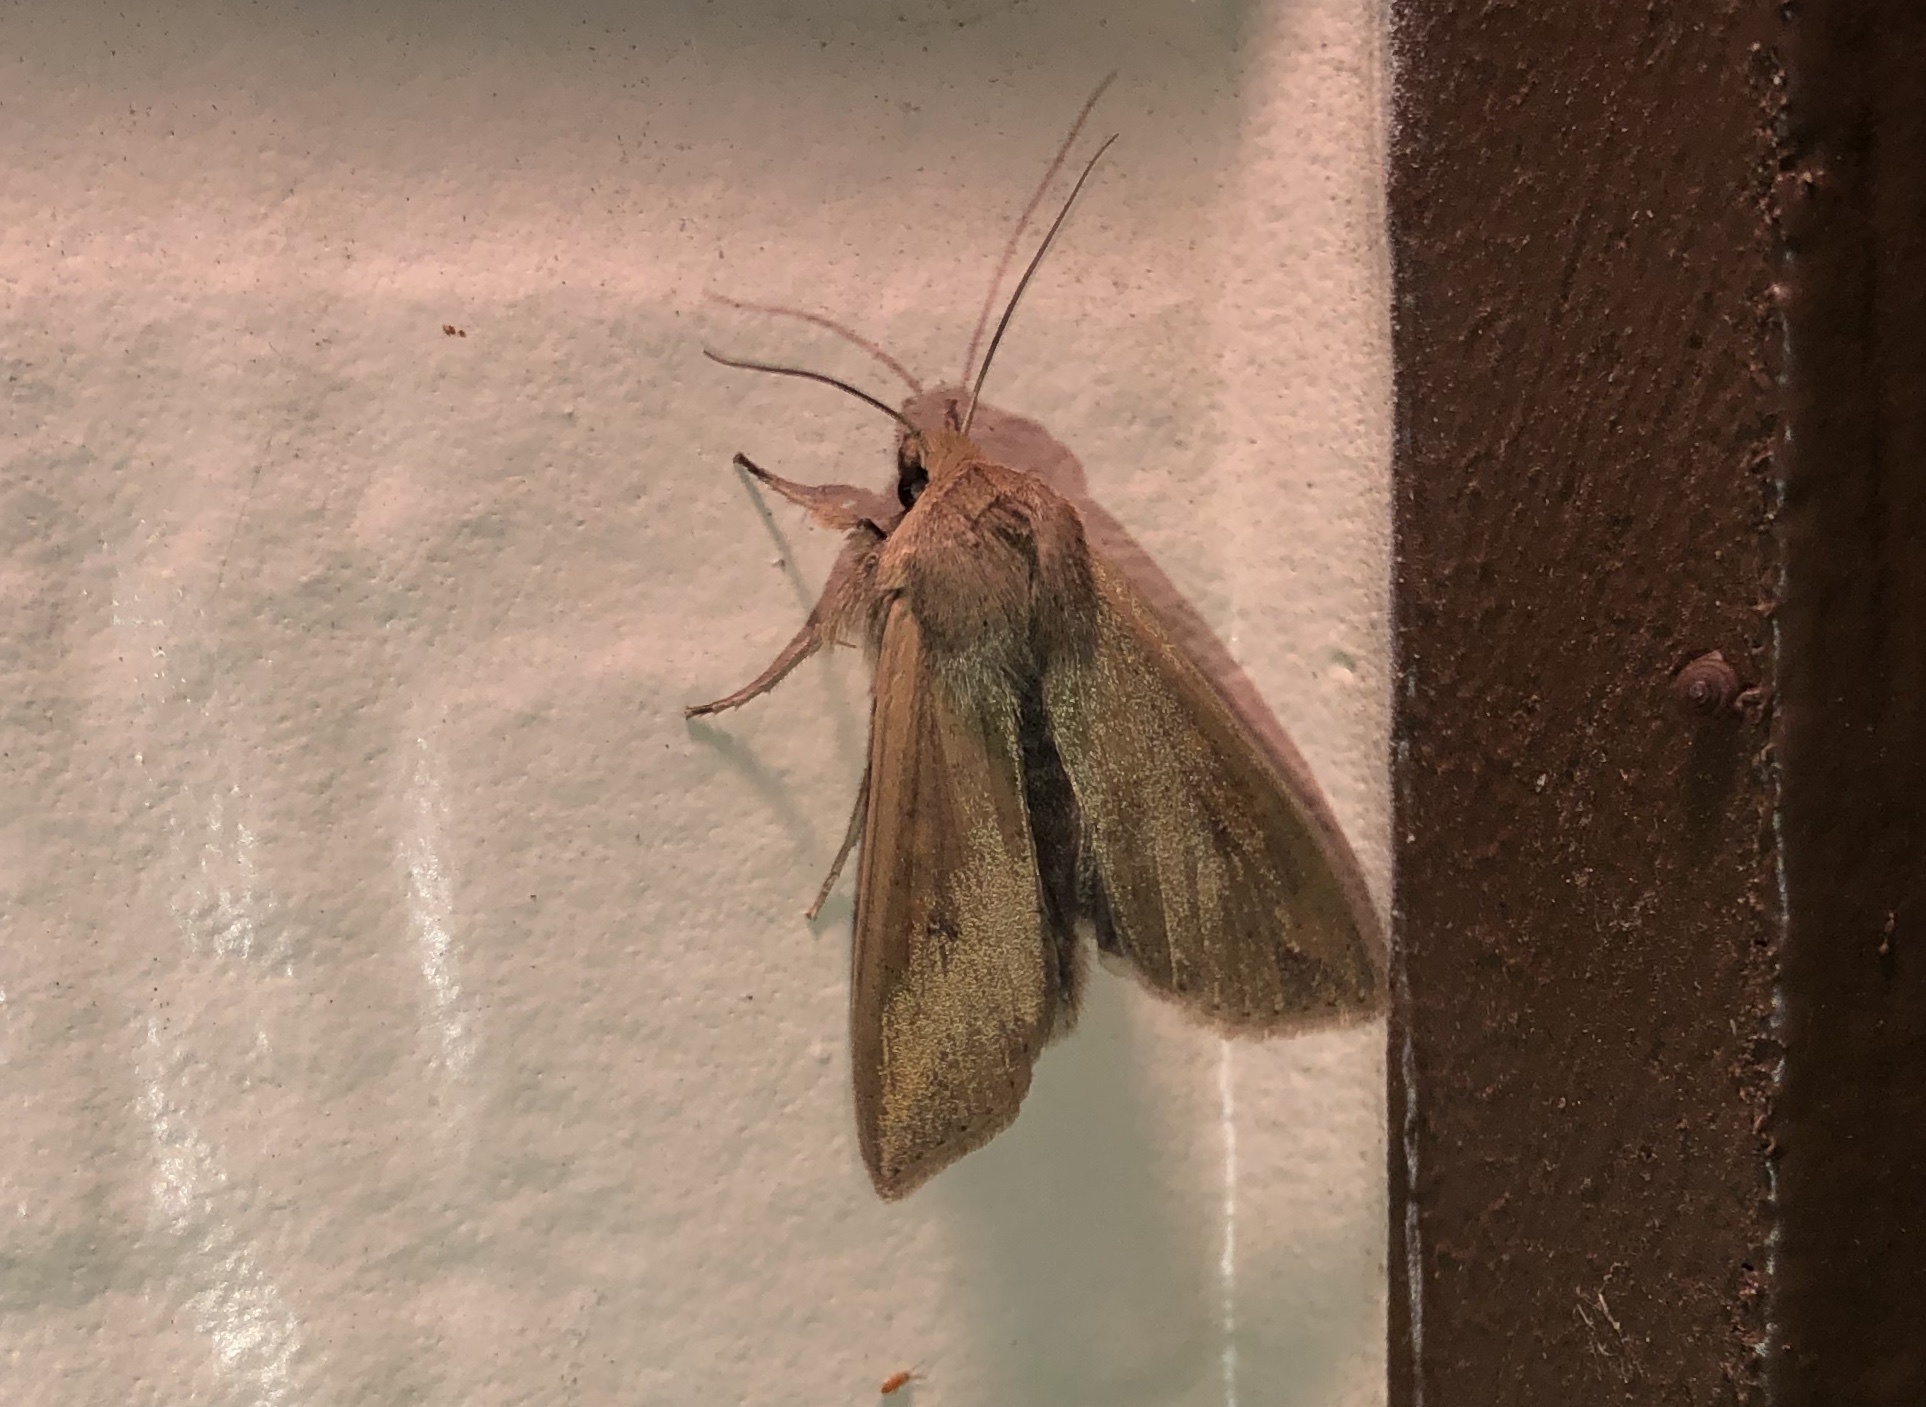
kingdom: Animalia
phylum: Arthropoda
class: Insecta
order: Lepidoptera
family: Noctuidae
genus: Mythimna
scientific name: Mythimna unipuncta
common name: White-speck
